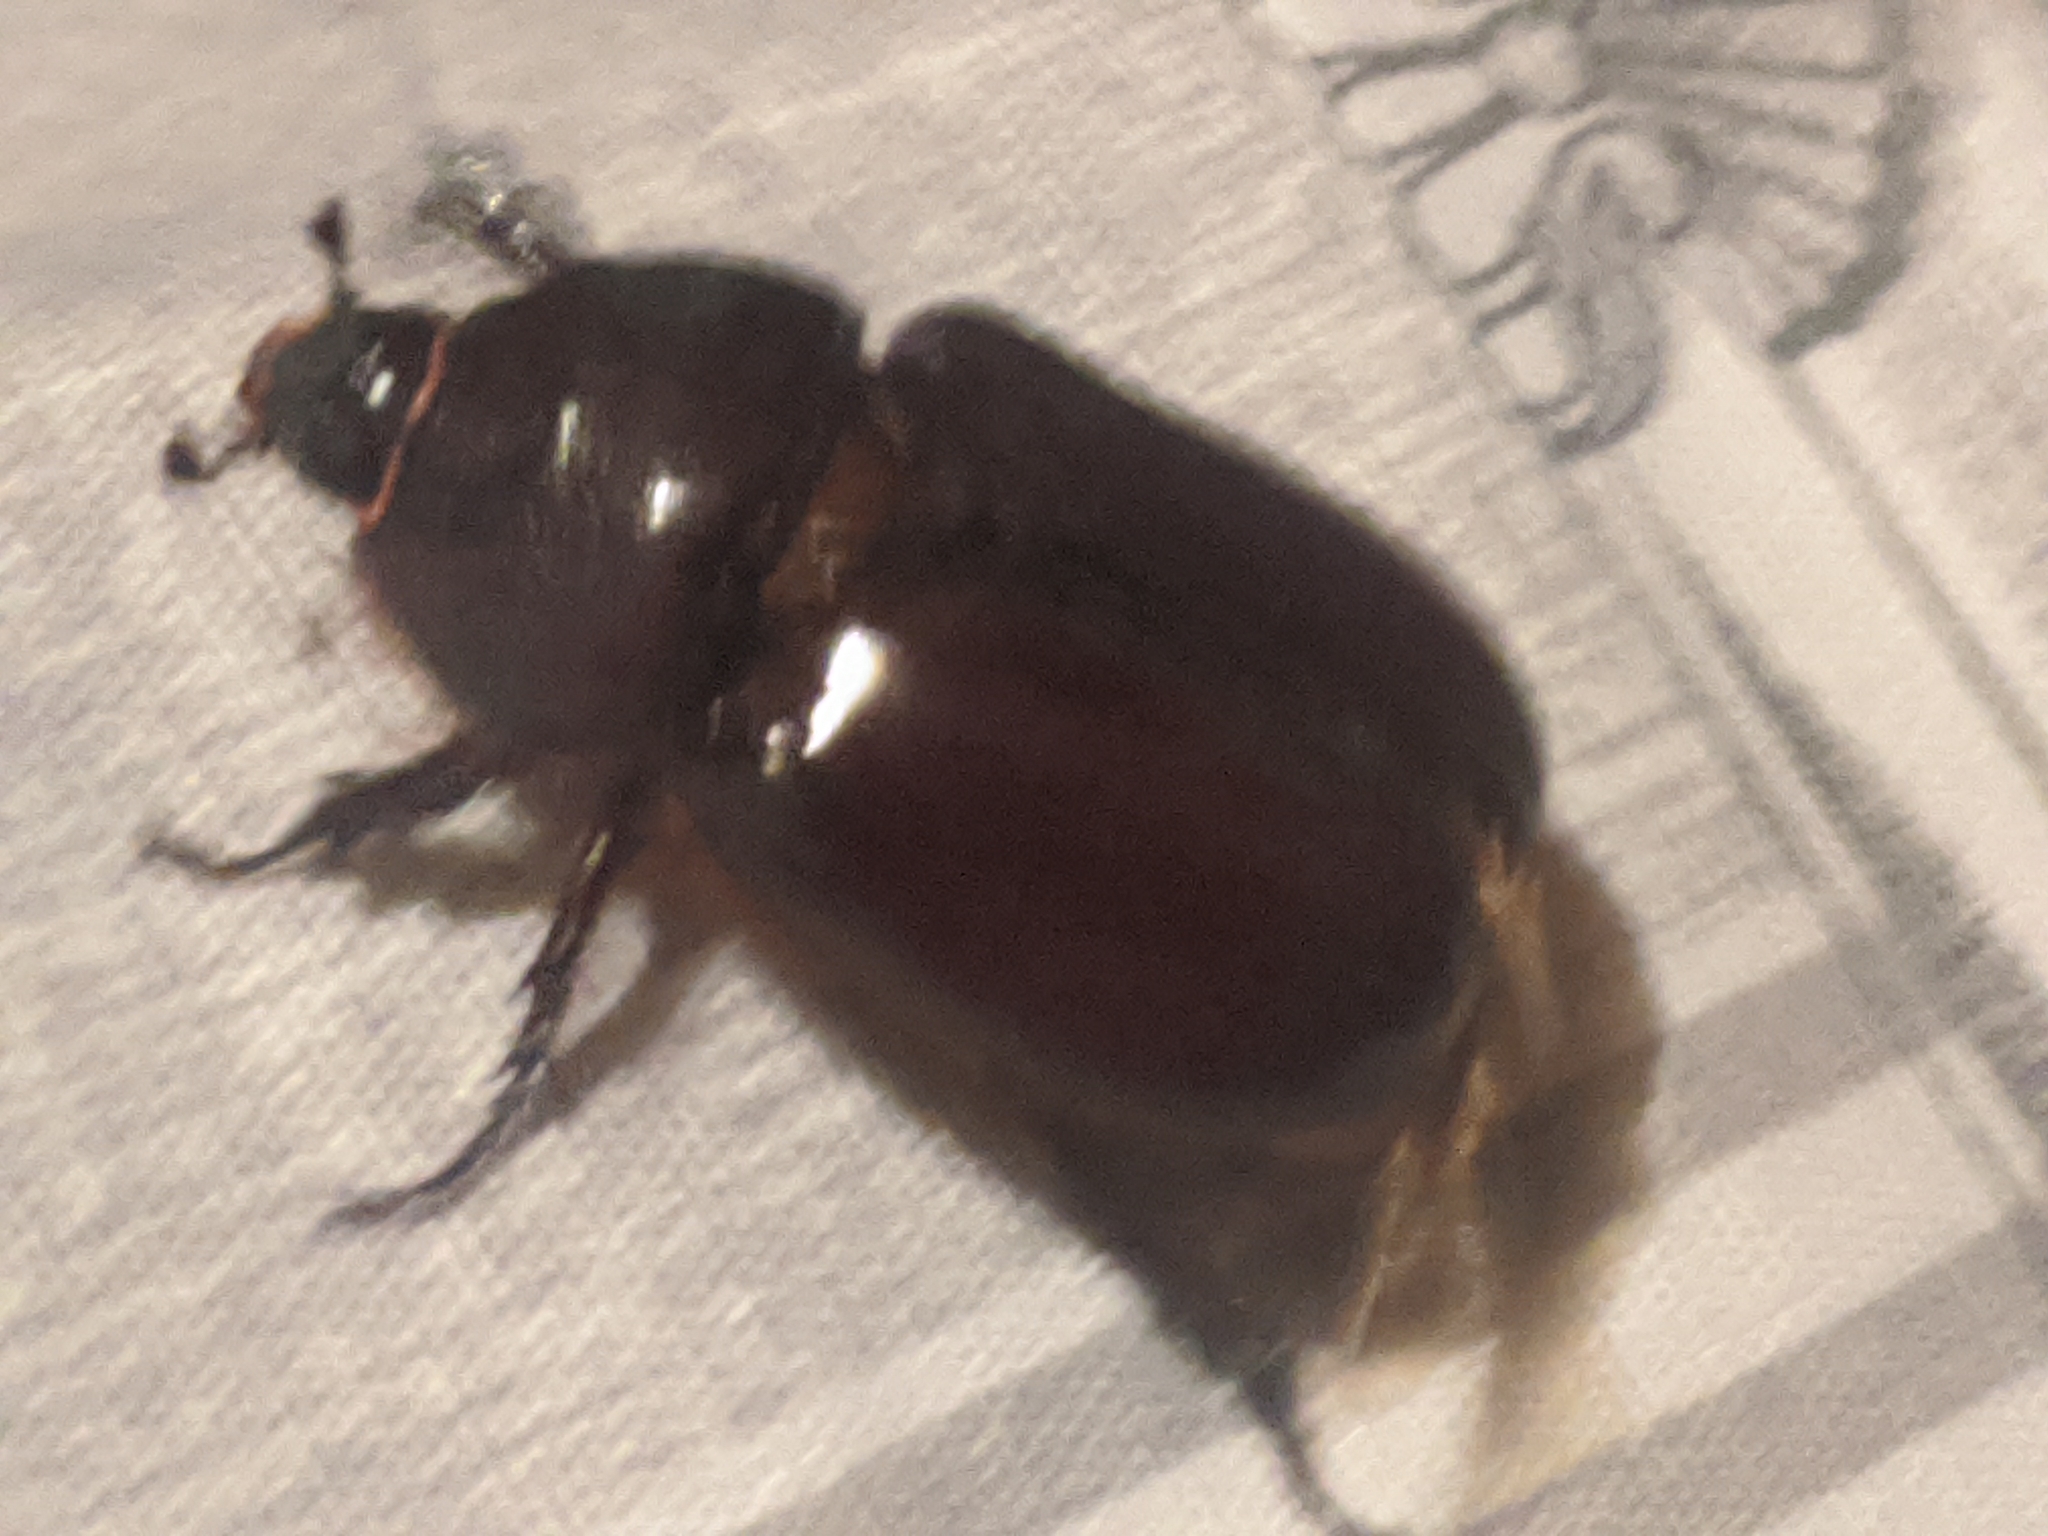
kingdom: Animalia
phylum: Arthropoda
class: Insecta
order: Coleoptera
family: Scarabaeidae
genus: Oryctes
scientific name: Oryctes nasicornis
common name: European rhinoceros beetle
